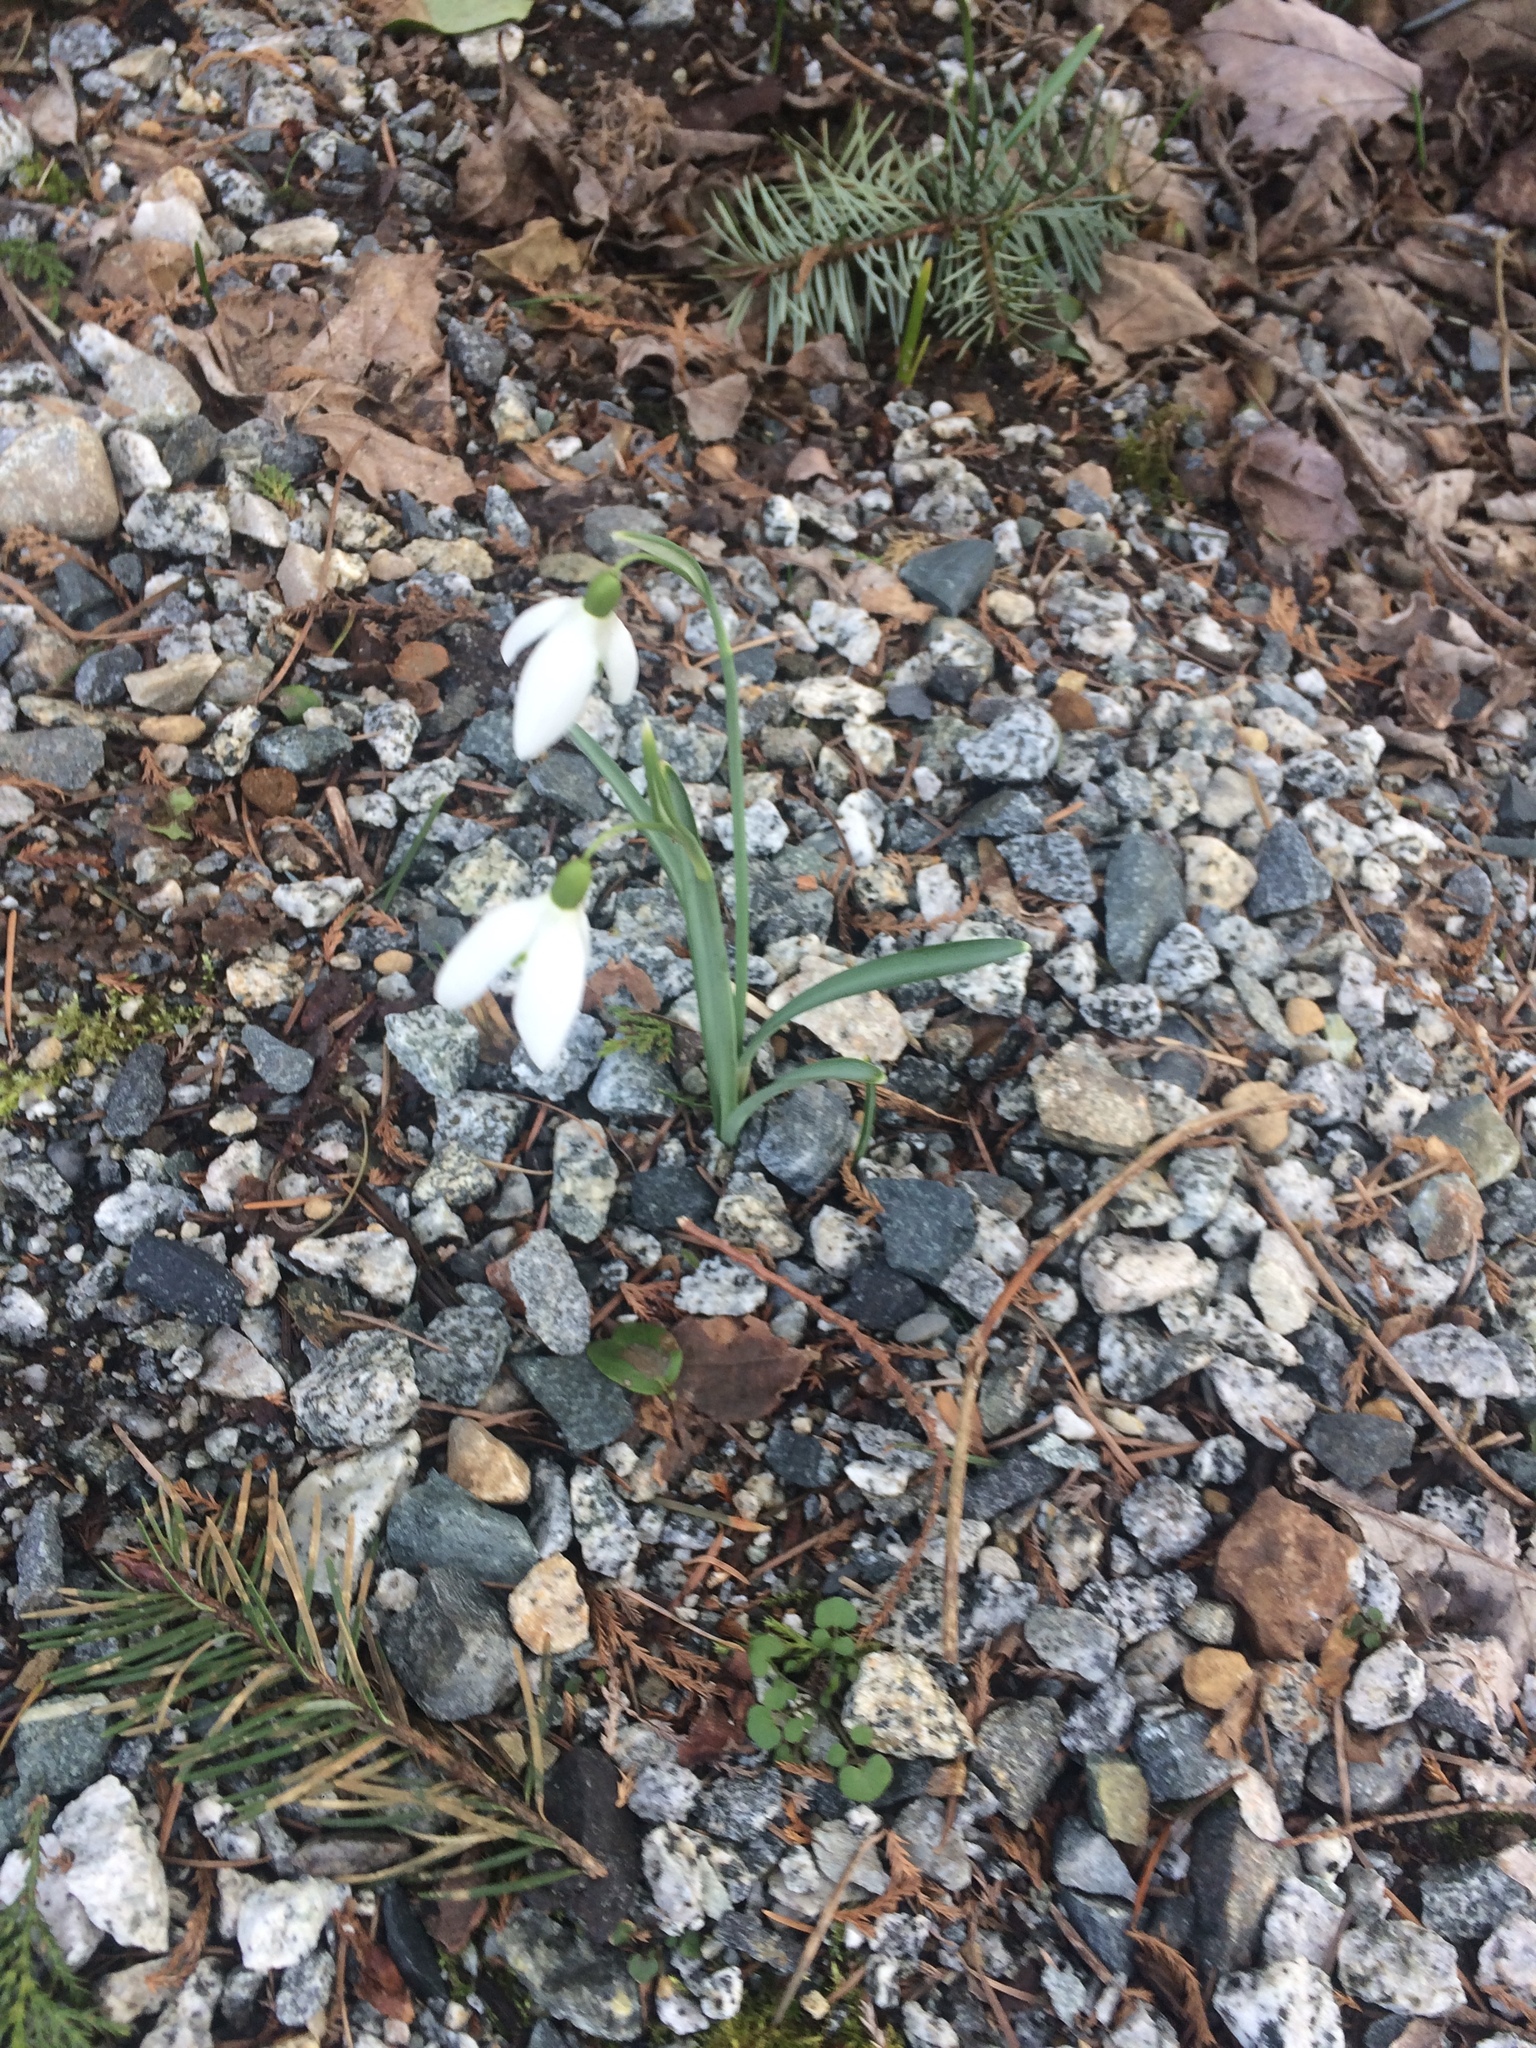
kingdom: Plantae
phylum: Tracheophyta
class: Liliopsida
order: Asparagales
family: Amaryllidaceae
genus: Galanthus
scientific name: Galanthus nivalis
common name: Snowdrop
